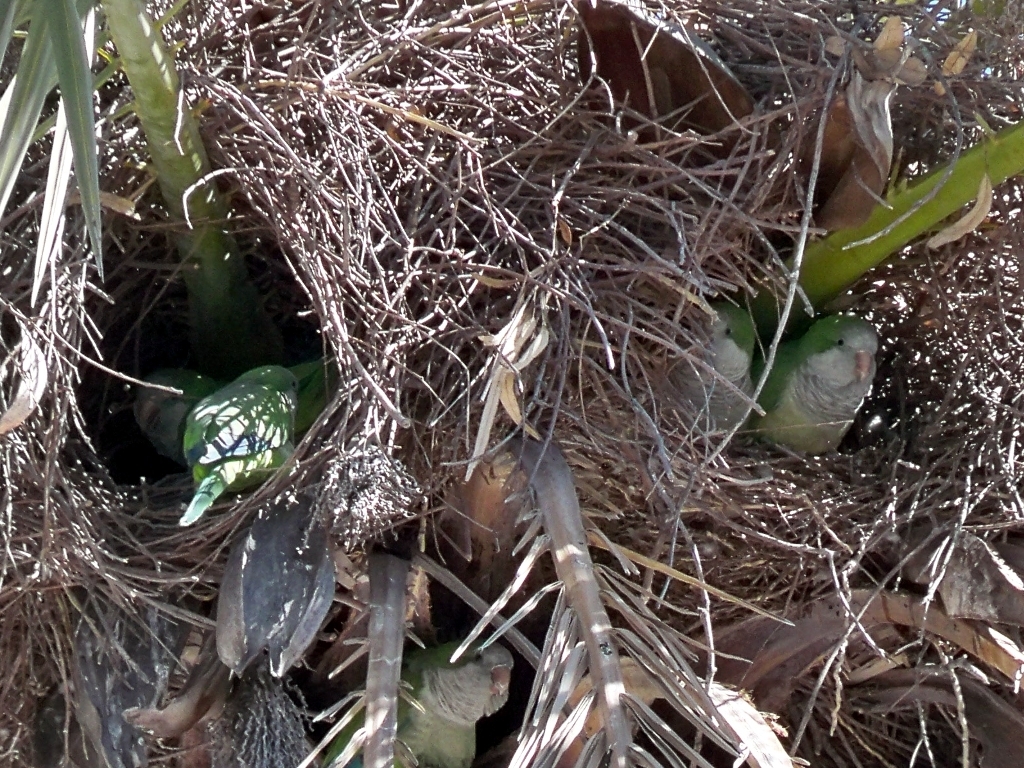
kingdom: Animalia
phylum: Chordata
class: Aves
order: Psittaciformes
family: Psittacidae
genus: Myiopsitta
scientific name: Myiopsitta monachus
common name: Monk parakeet
